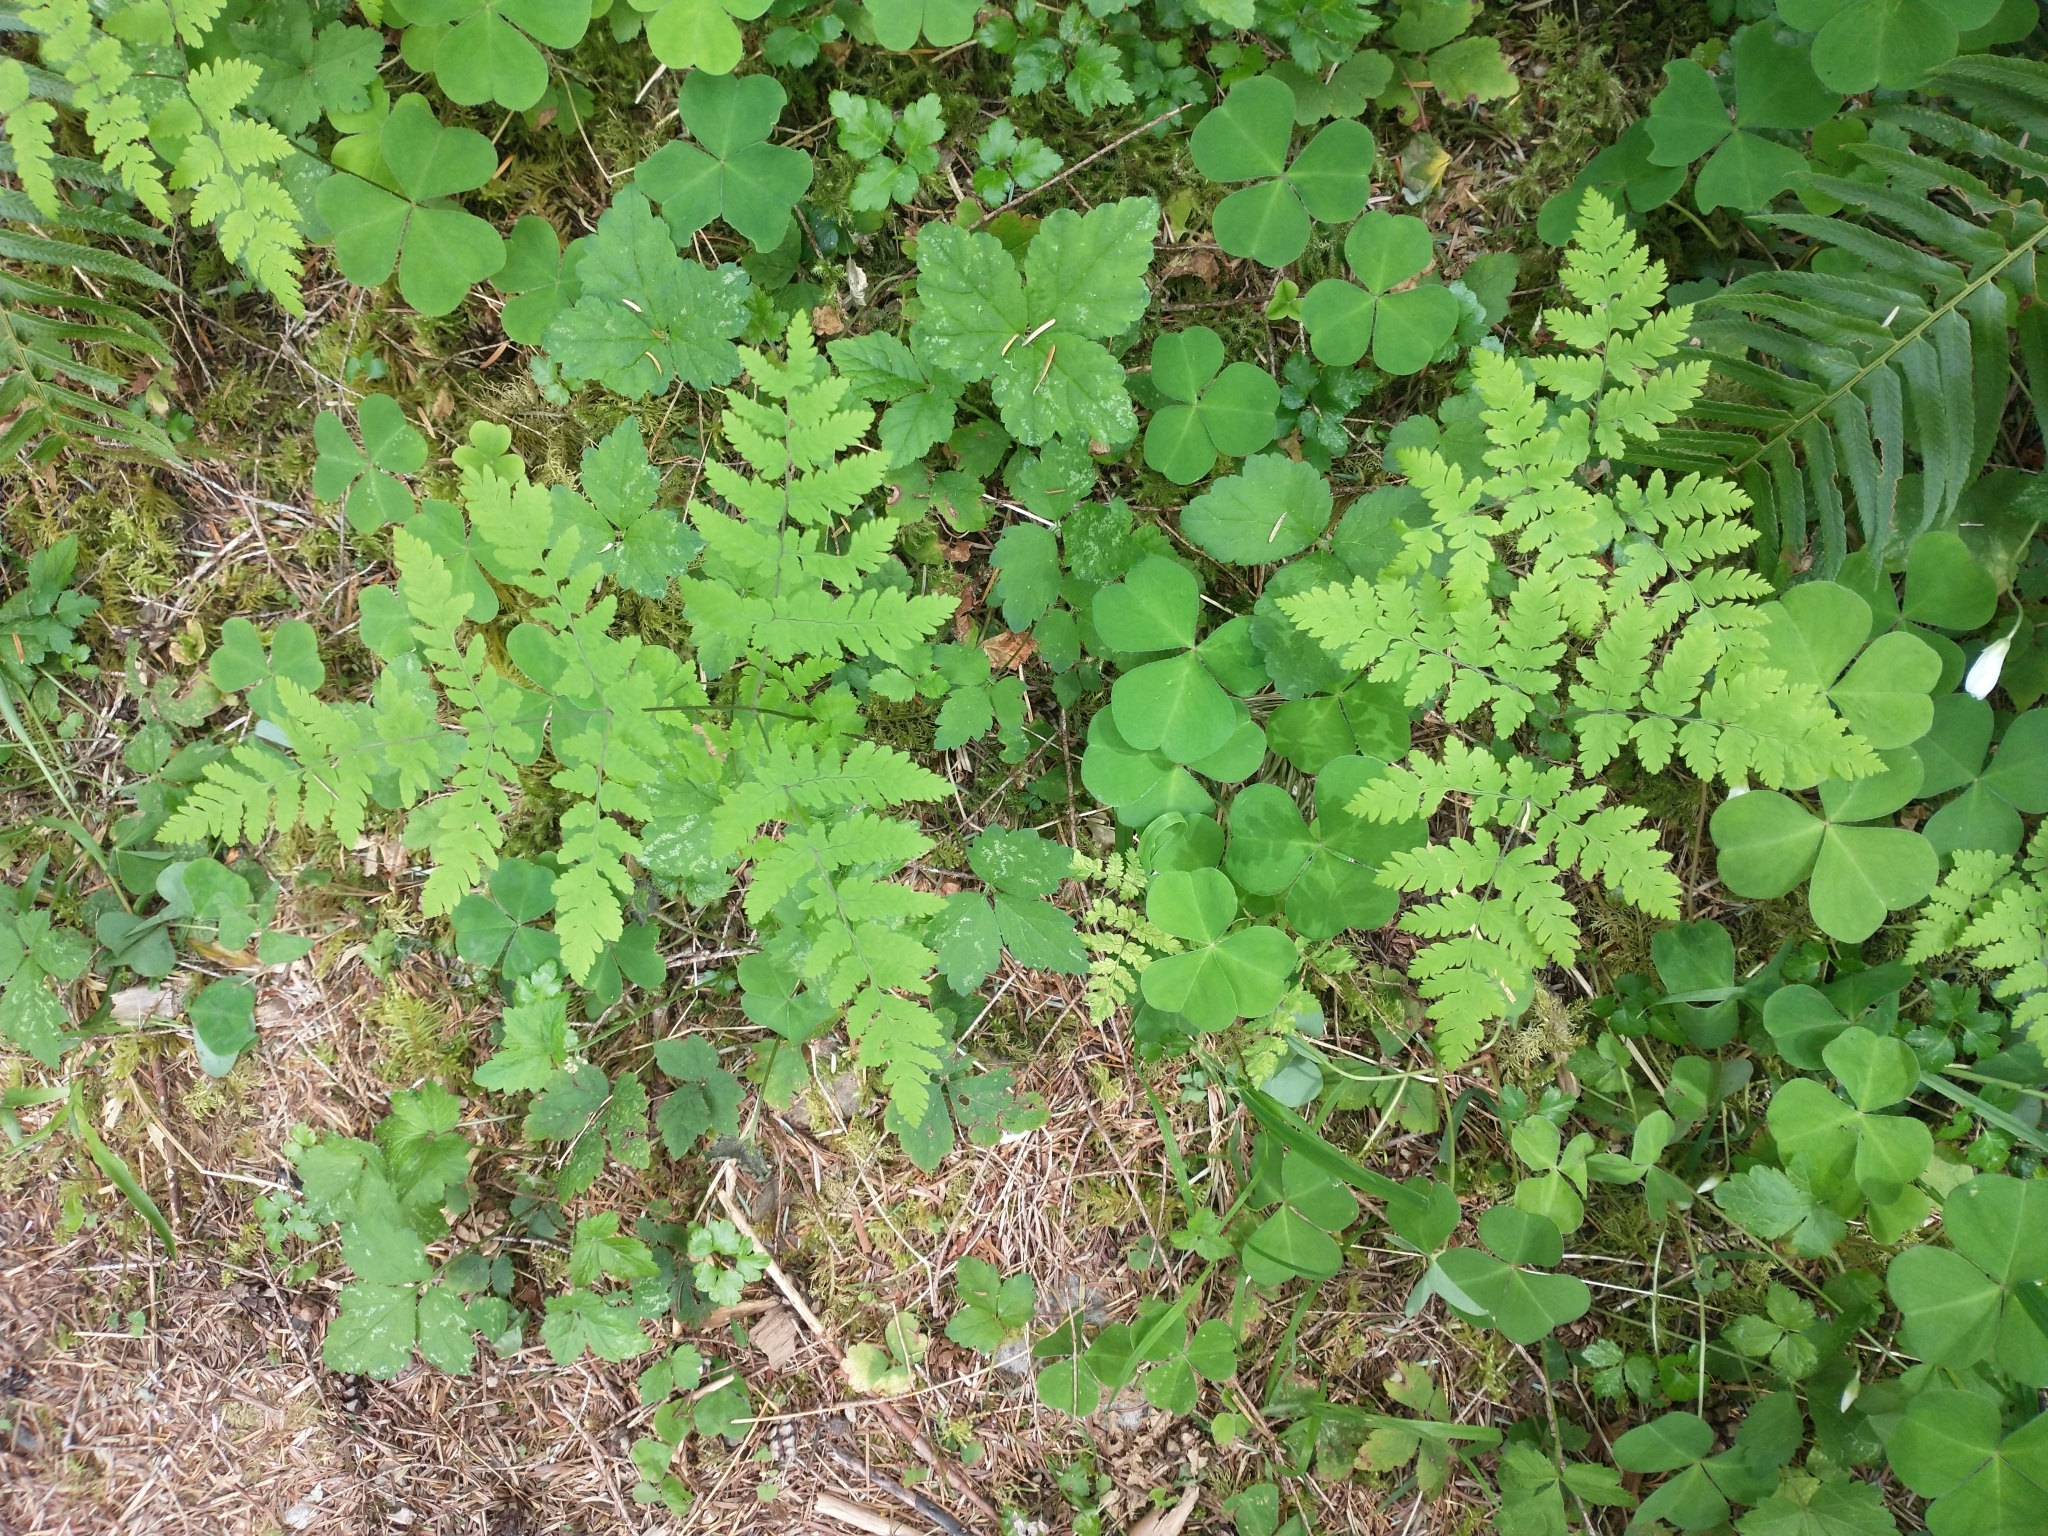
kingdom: Plantae
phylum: Tracheophyta
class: Polypodiopsida
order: Polypodiales
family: Cystopteridaceae
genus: Gymnocarpium
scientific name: Gymnocarpium disjunctum
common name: Western oak fern
